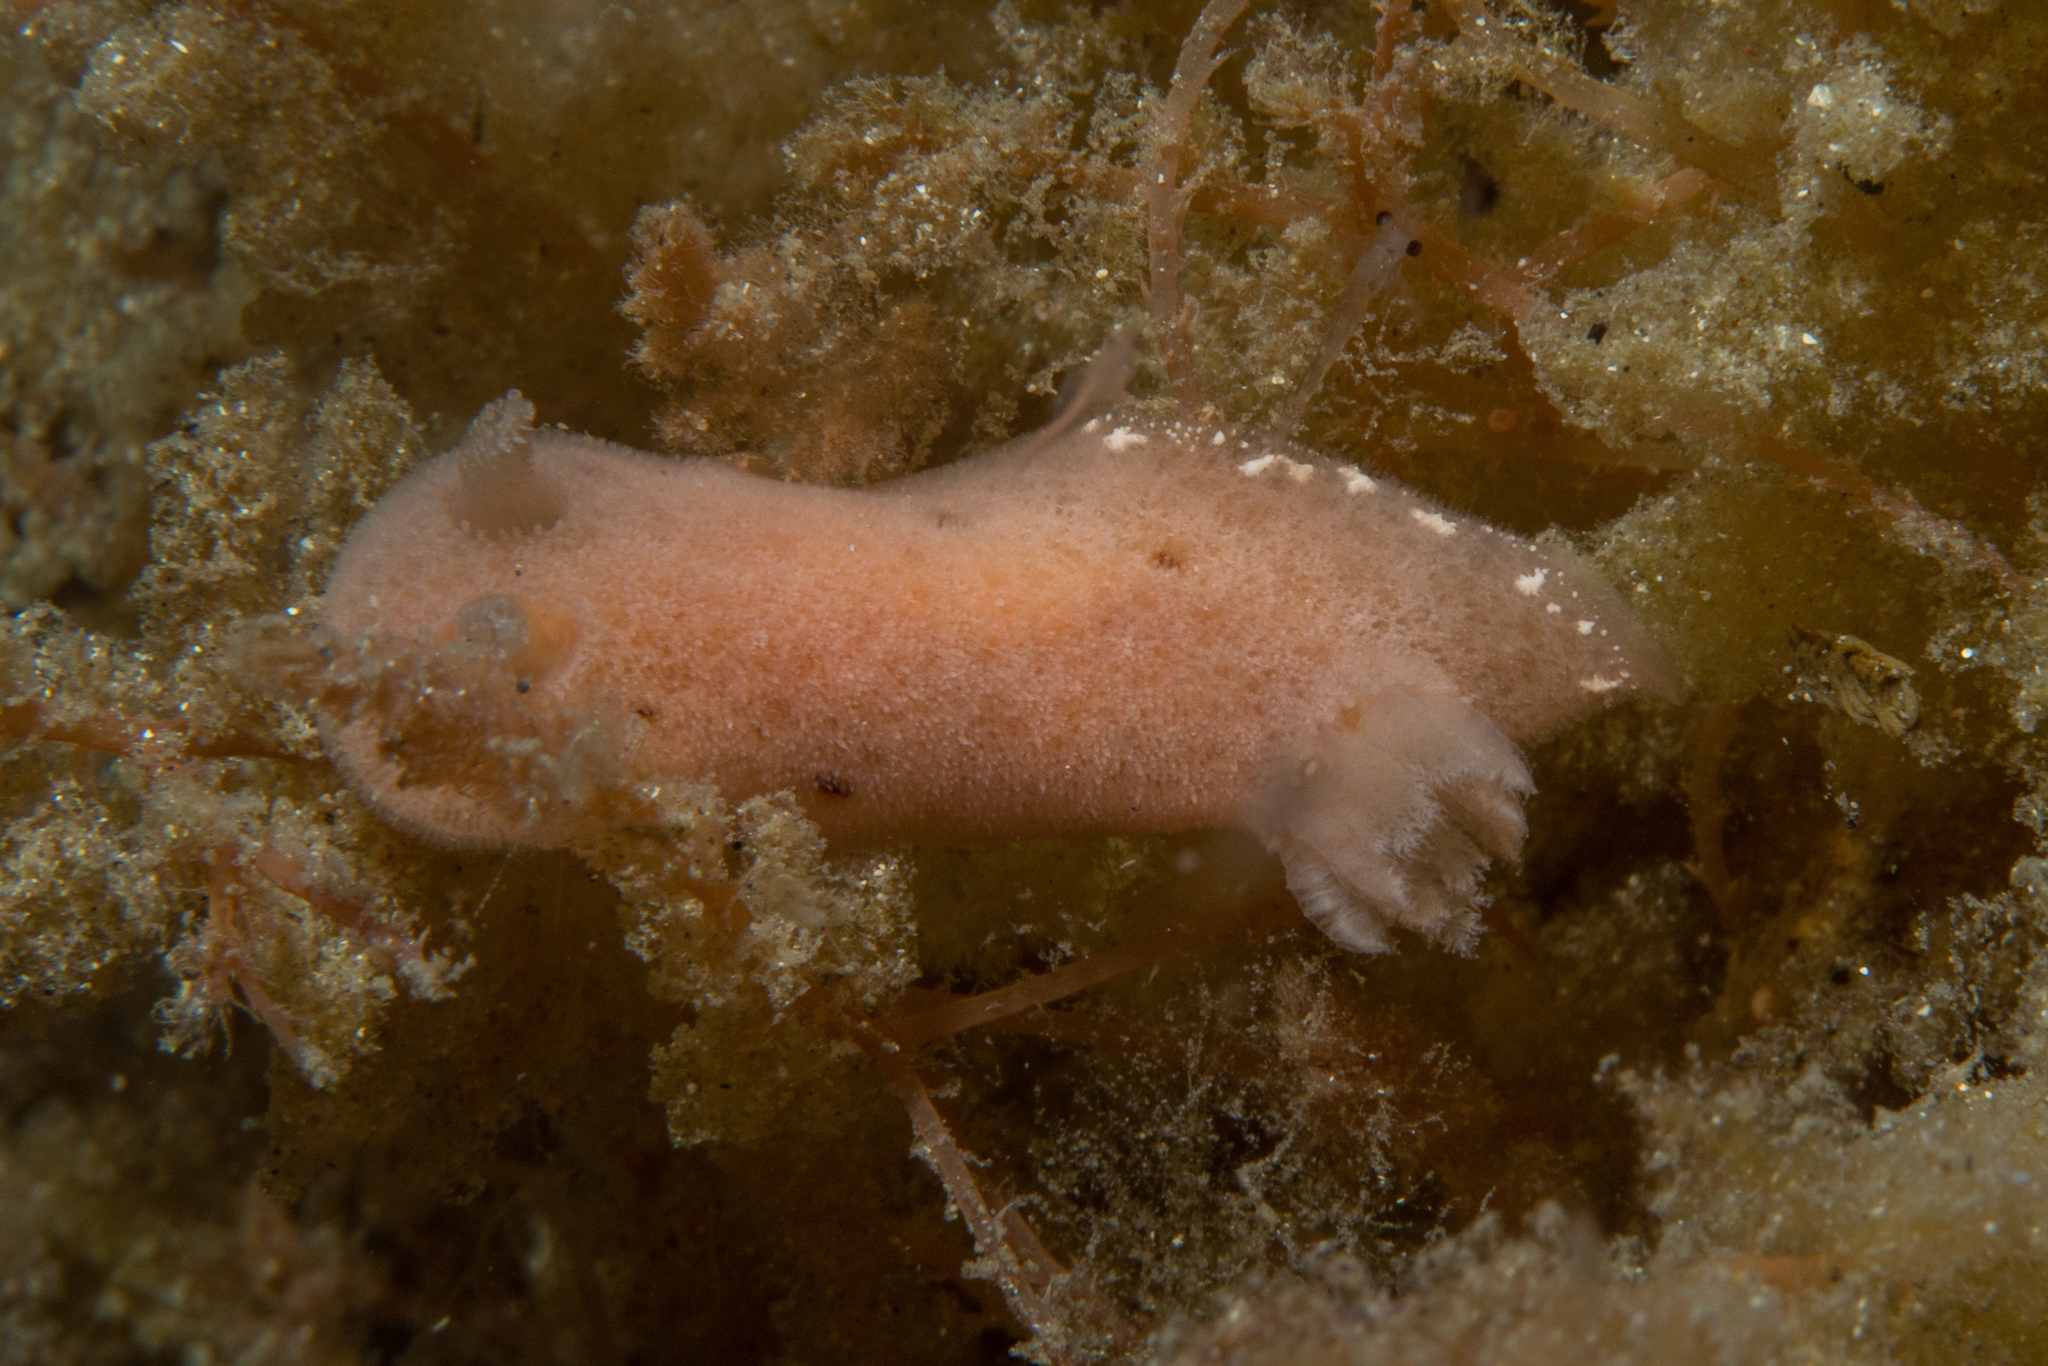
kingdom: Animalia
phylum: Mollusca
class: Gastropoda
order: Nudibranchia
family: Discodorididae
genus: Jorunna
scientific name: Jorunna hartleyi
